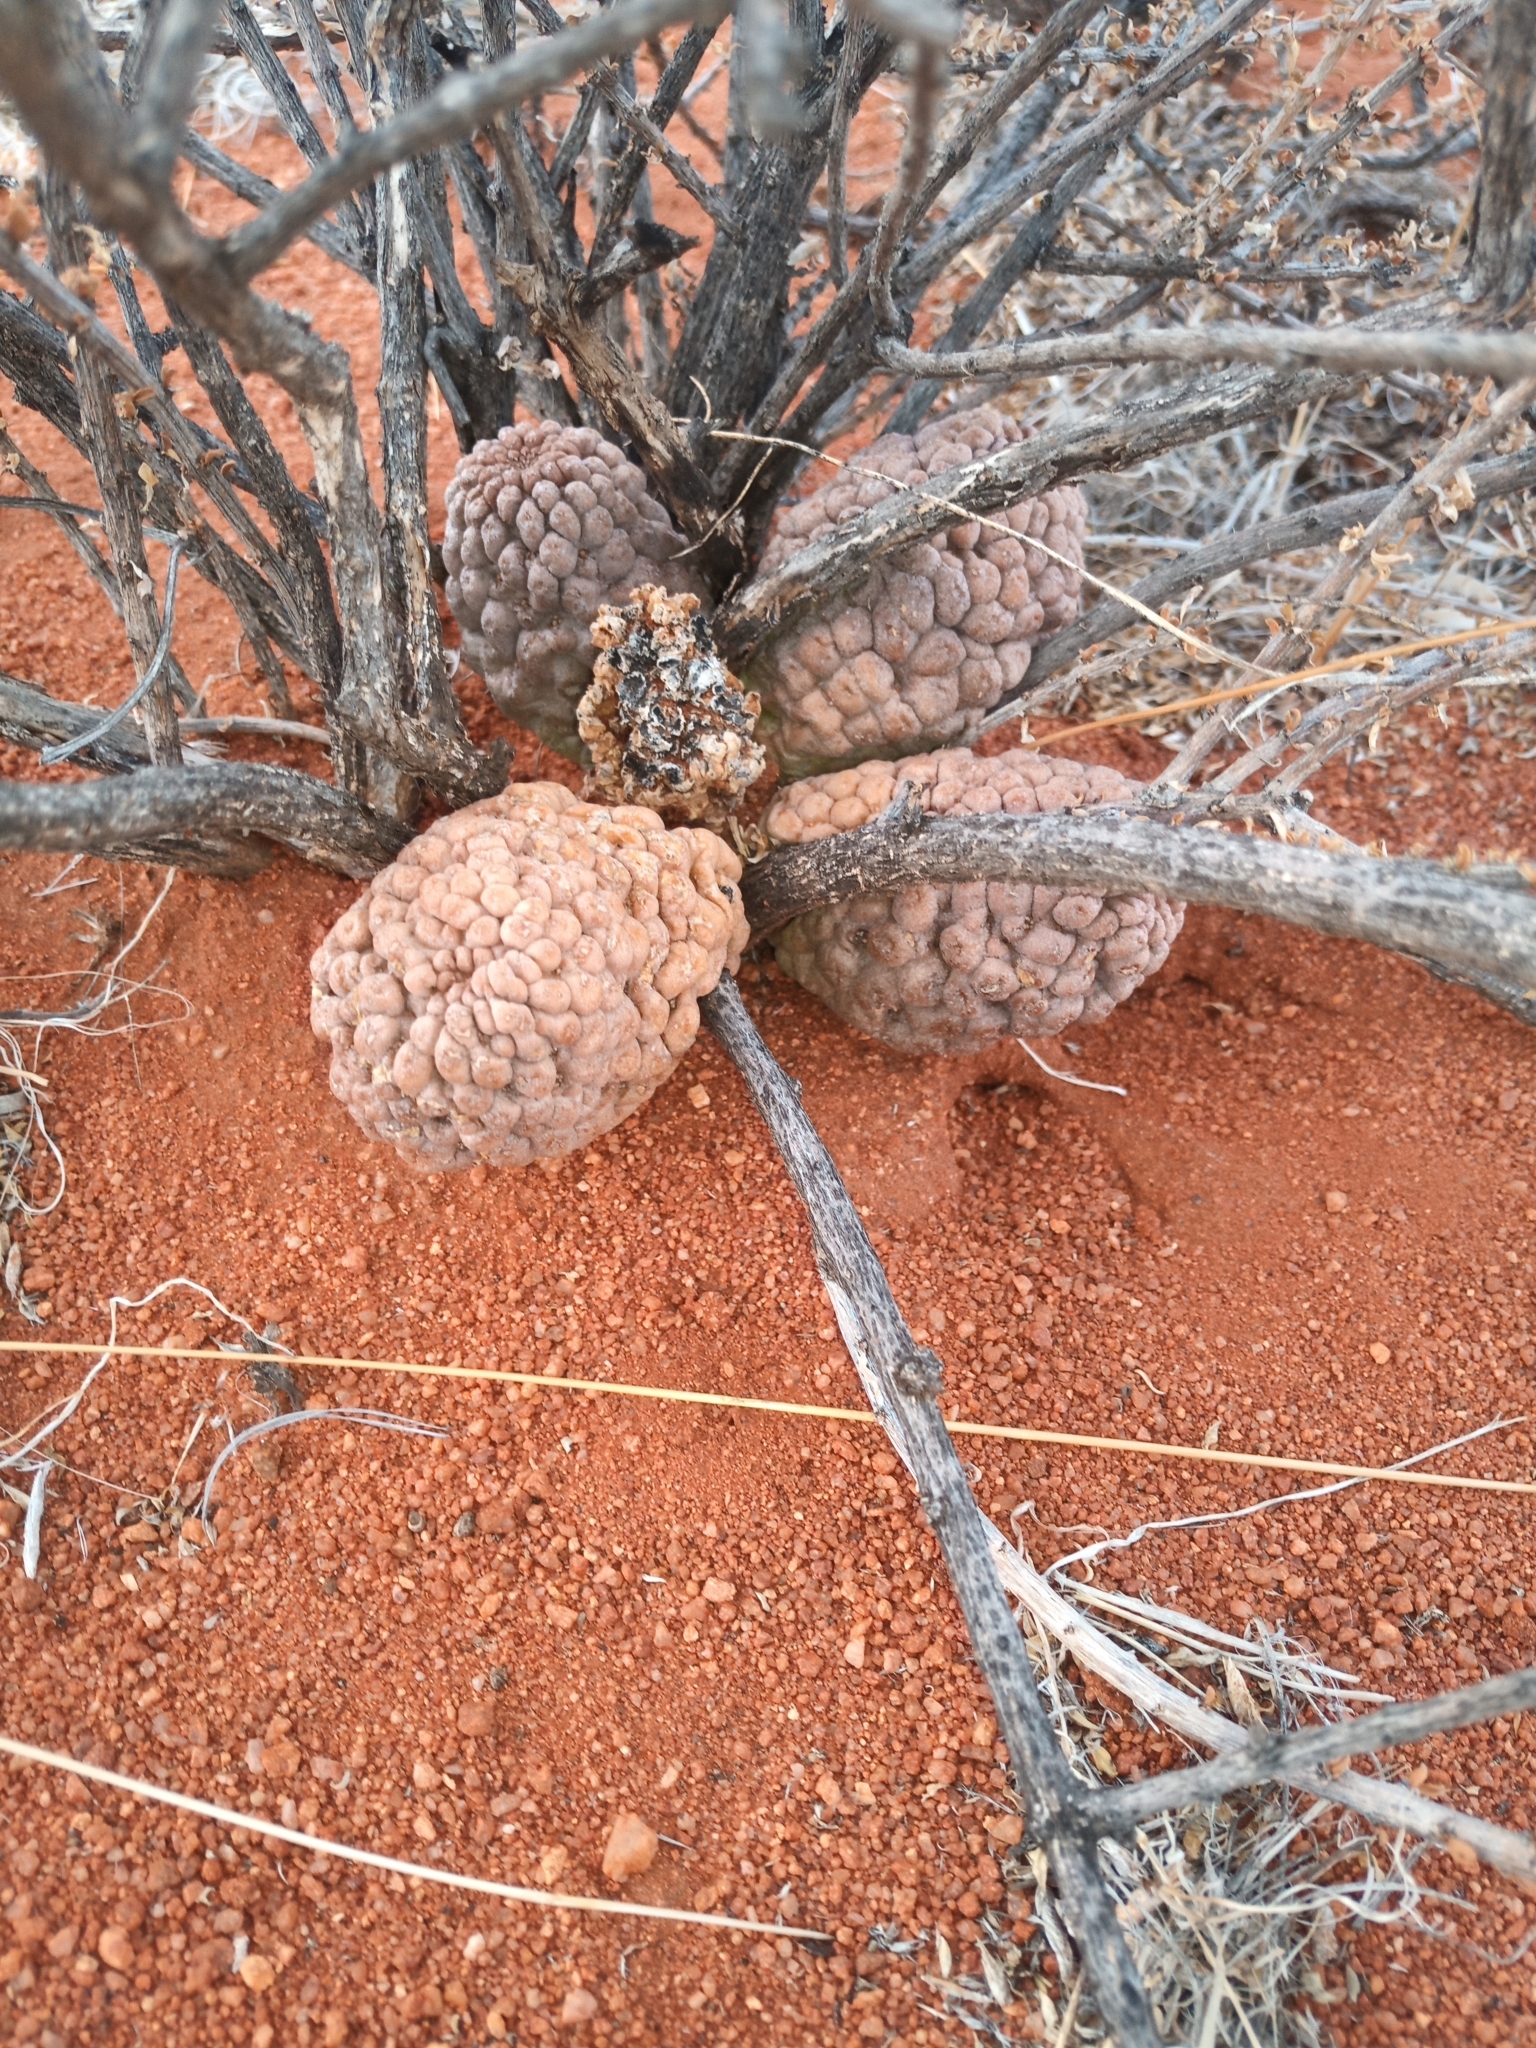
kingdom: Plantae
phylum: Tracheophyta
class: Magnoliopsida
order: Gentianales
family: Apocynaceae
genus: Ceropegia
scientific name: Ceropegia marlothii
